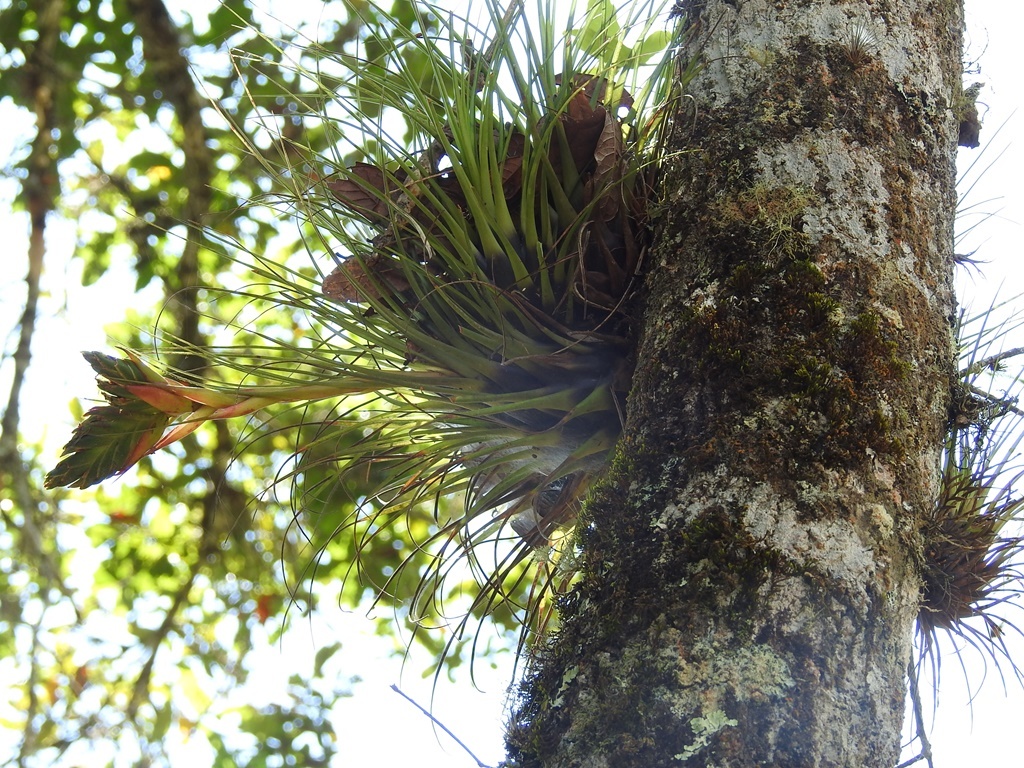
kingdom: Plantae
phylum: Tracheophyta
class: Liliopsida
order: Poales
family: Bromeliaceae
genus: Tillandsia
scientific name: Tillandsia punctulata
